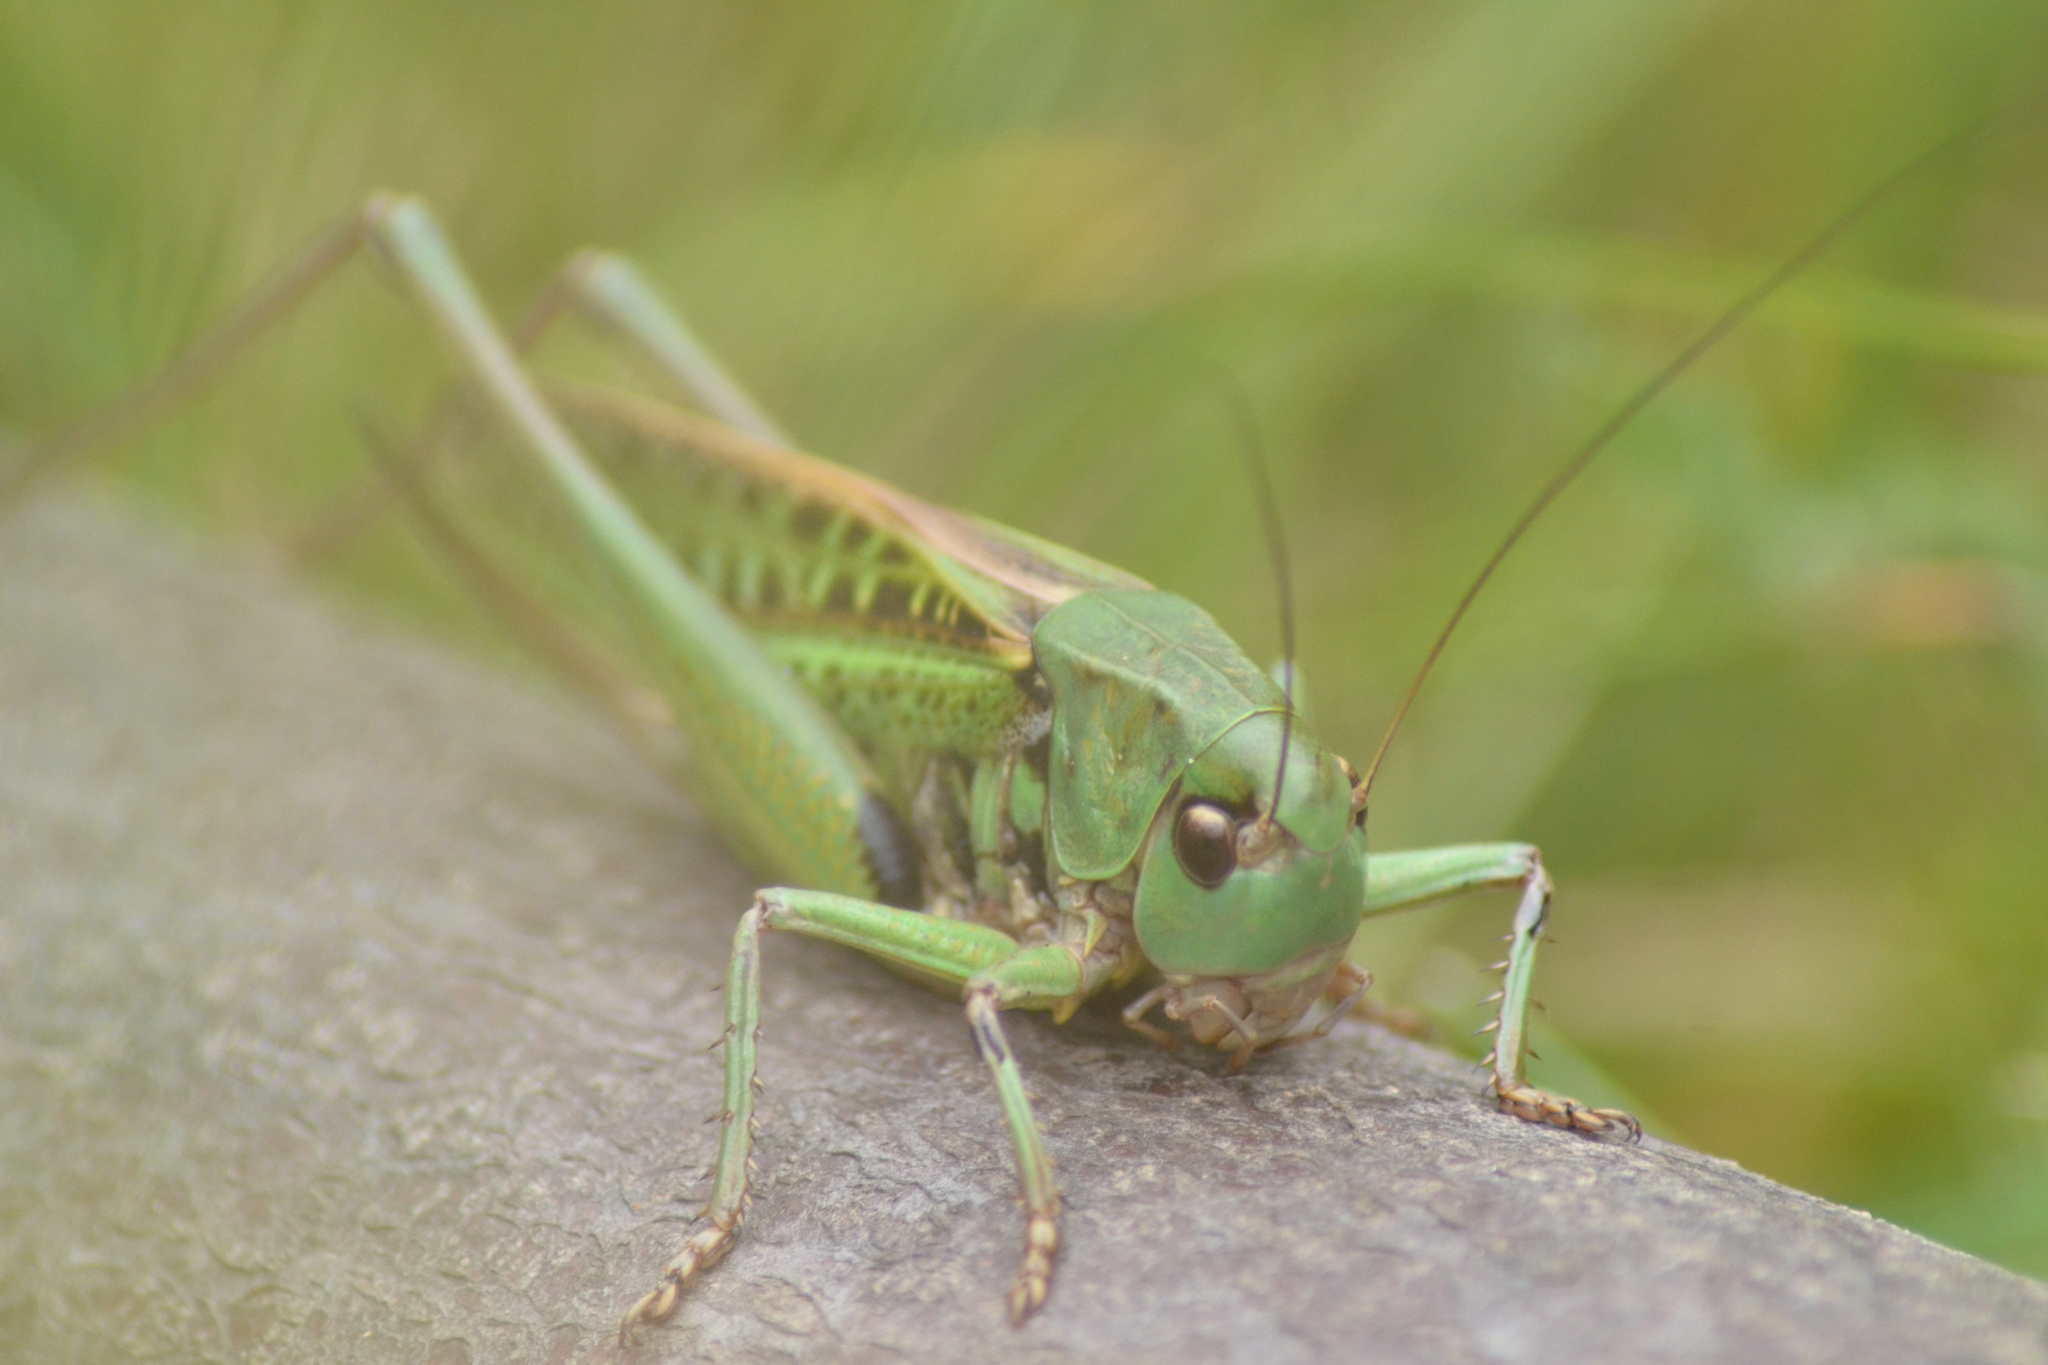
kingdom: Animalia
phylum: Arthropoda
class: Insecta
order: Orthoptera
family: Tettigoniidae
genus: Decticus
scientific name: Decticus verrucivorus
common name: Wart-biter
